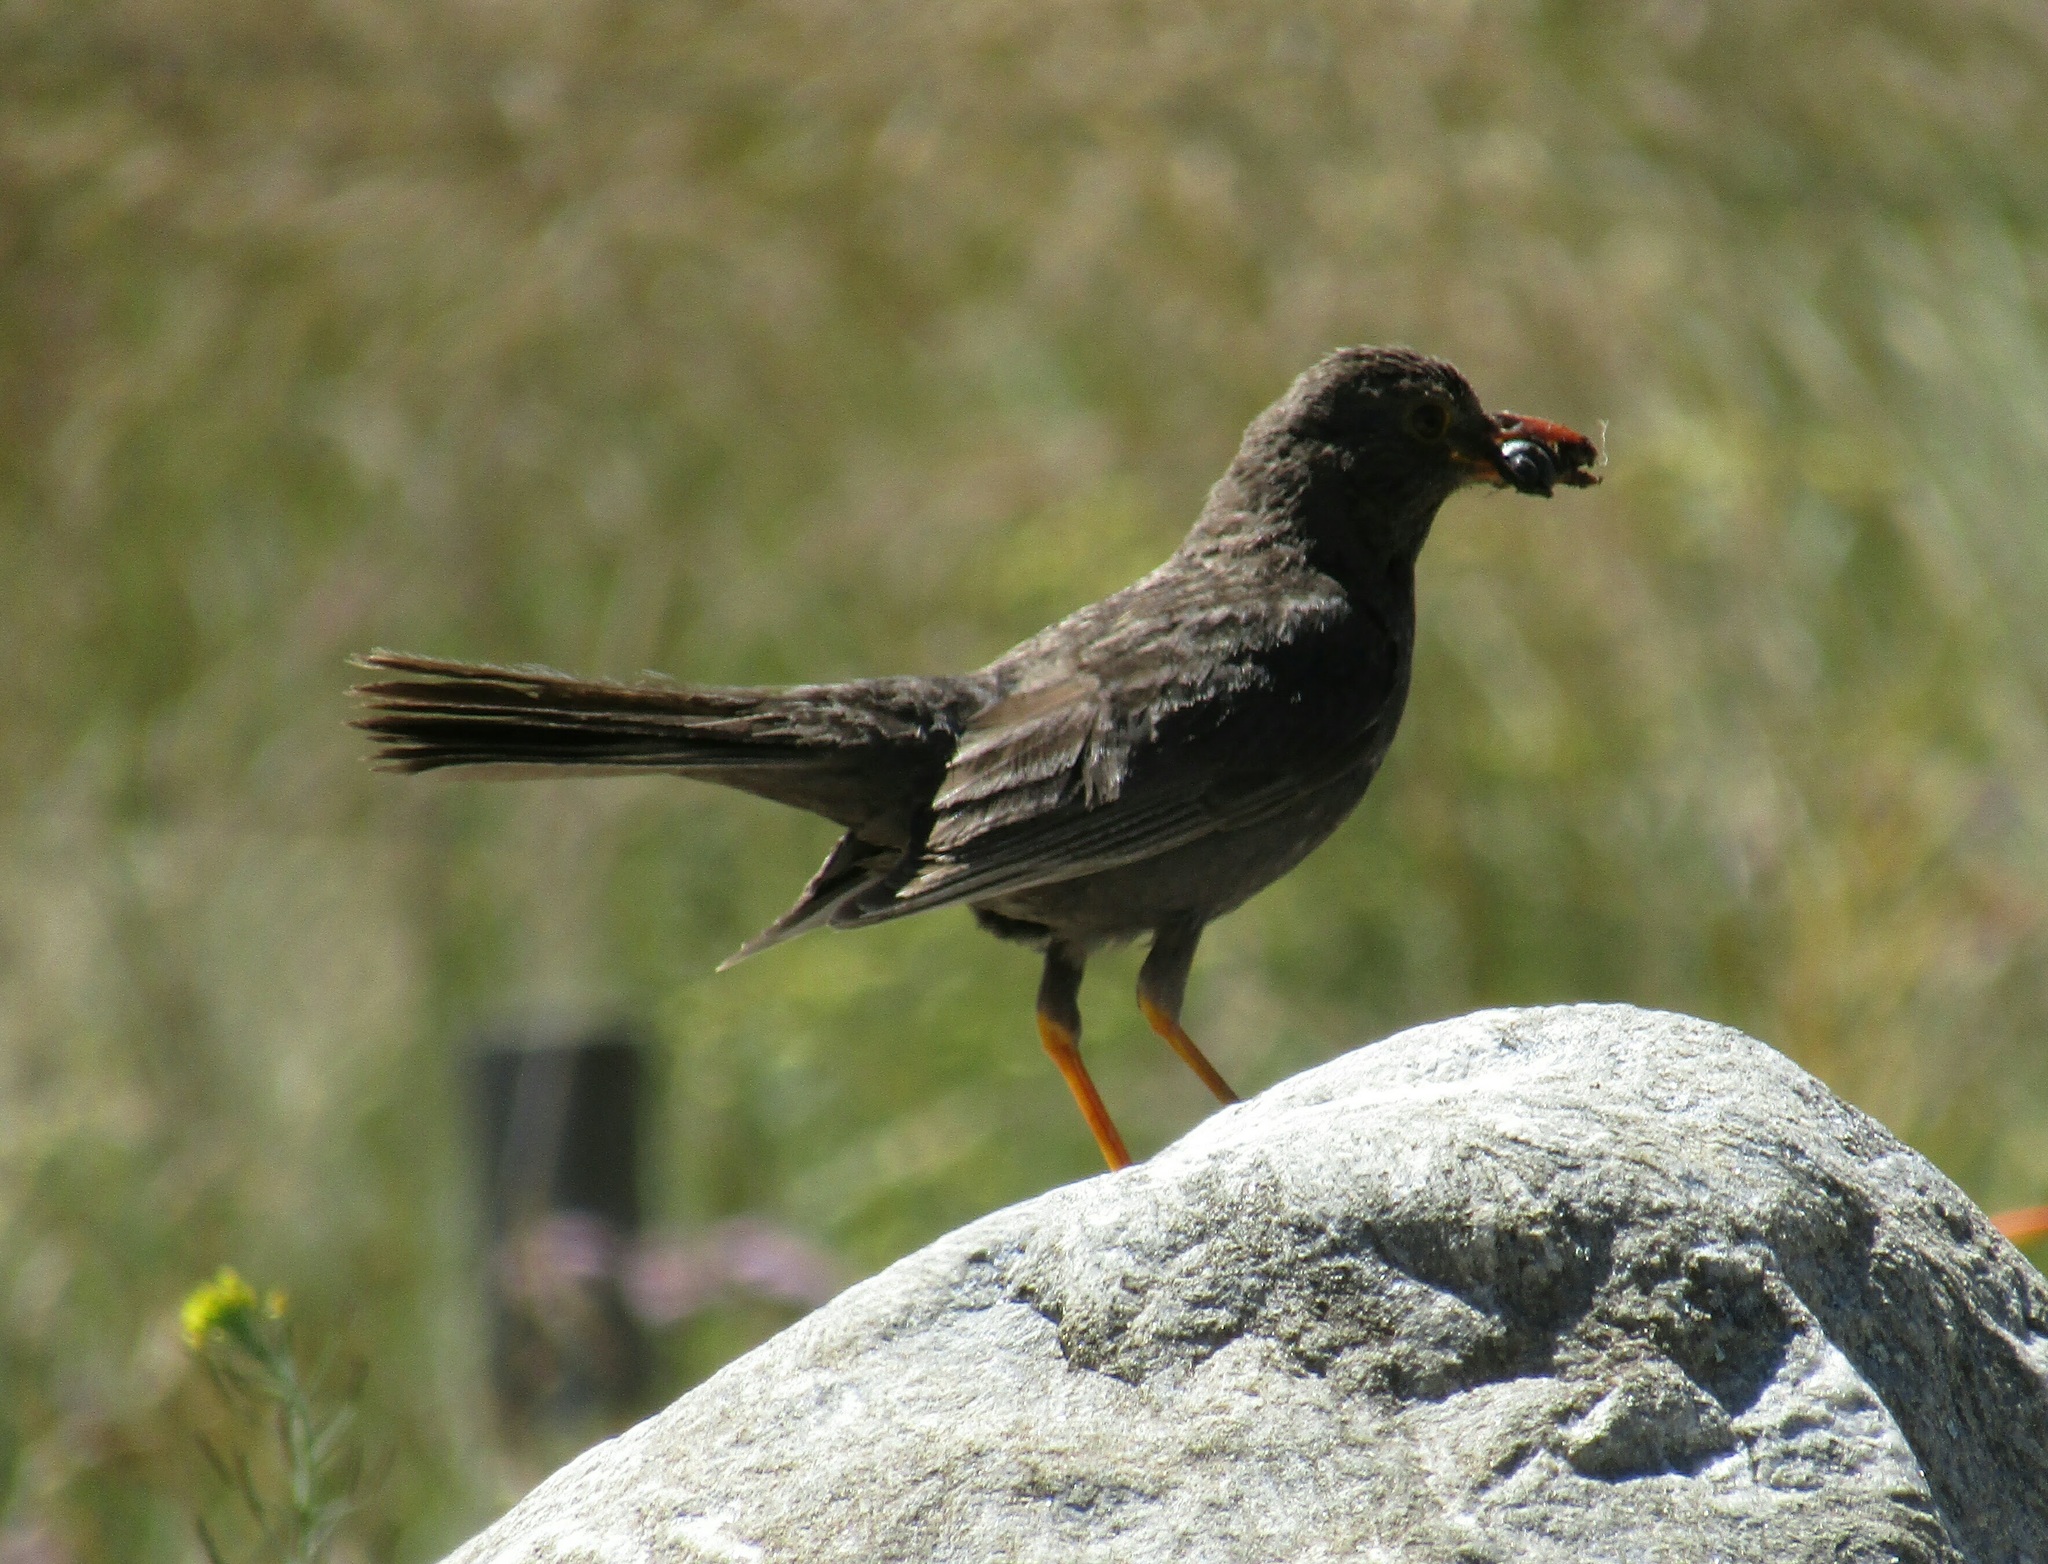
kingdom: Animalia
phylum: Chordata
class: Aves
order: Passeriformes
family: Turdidae
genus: Turdus
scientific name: Turdus chiguanco
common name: Chiguanco thrush
